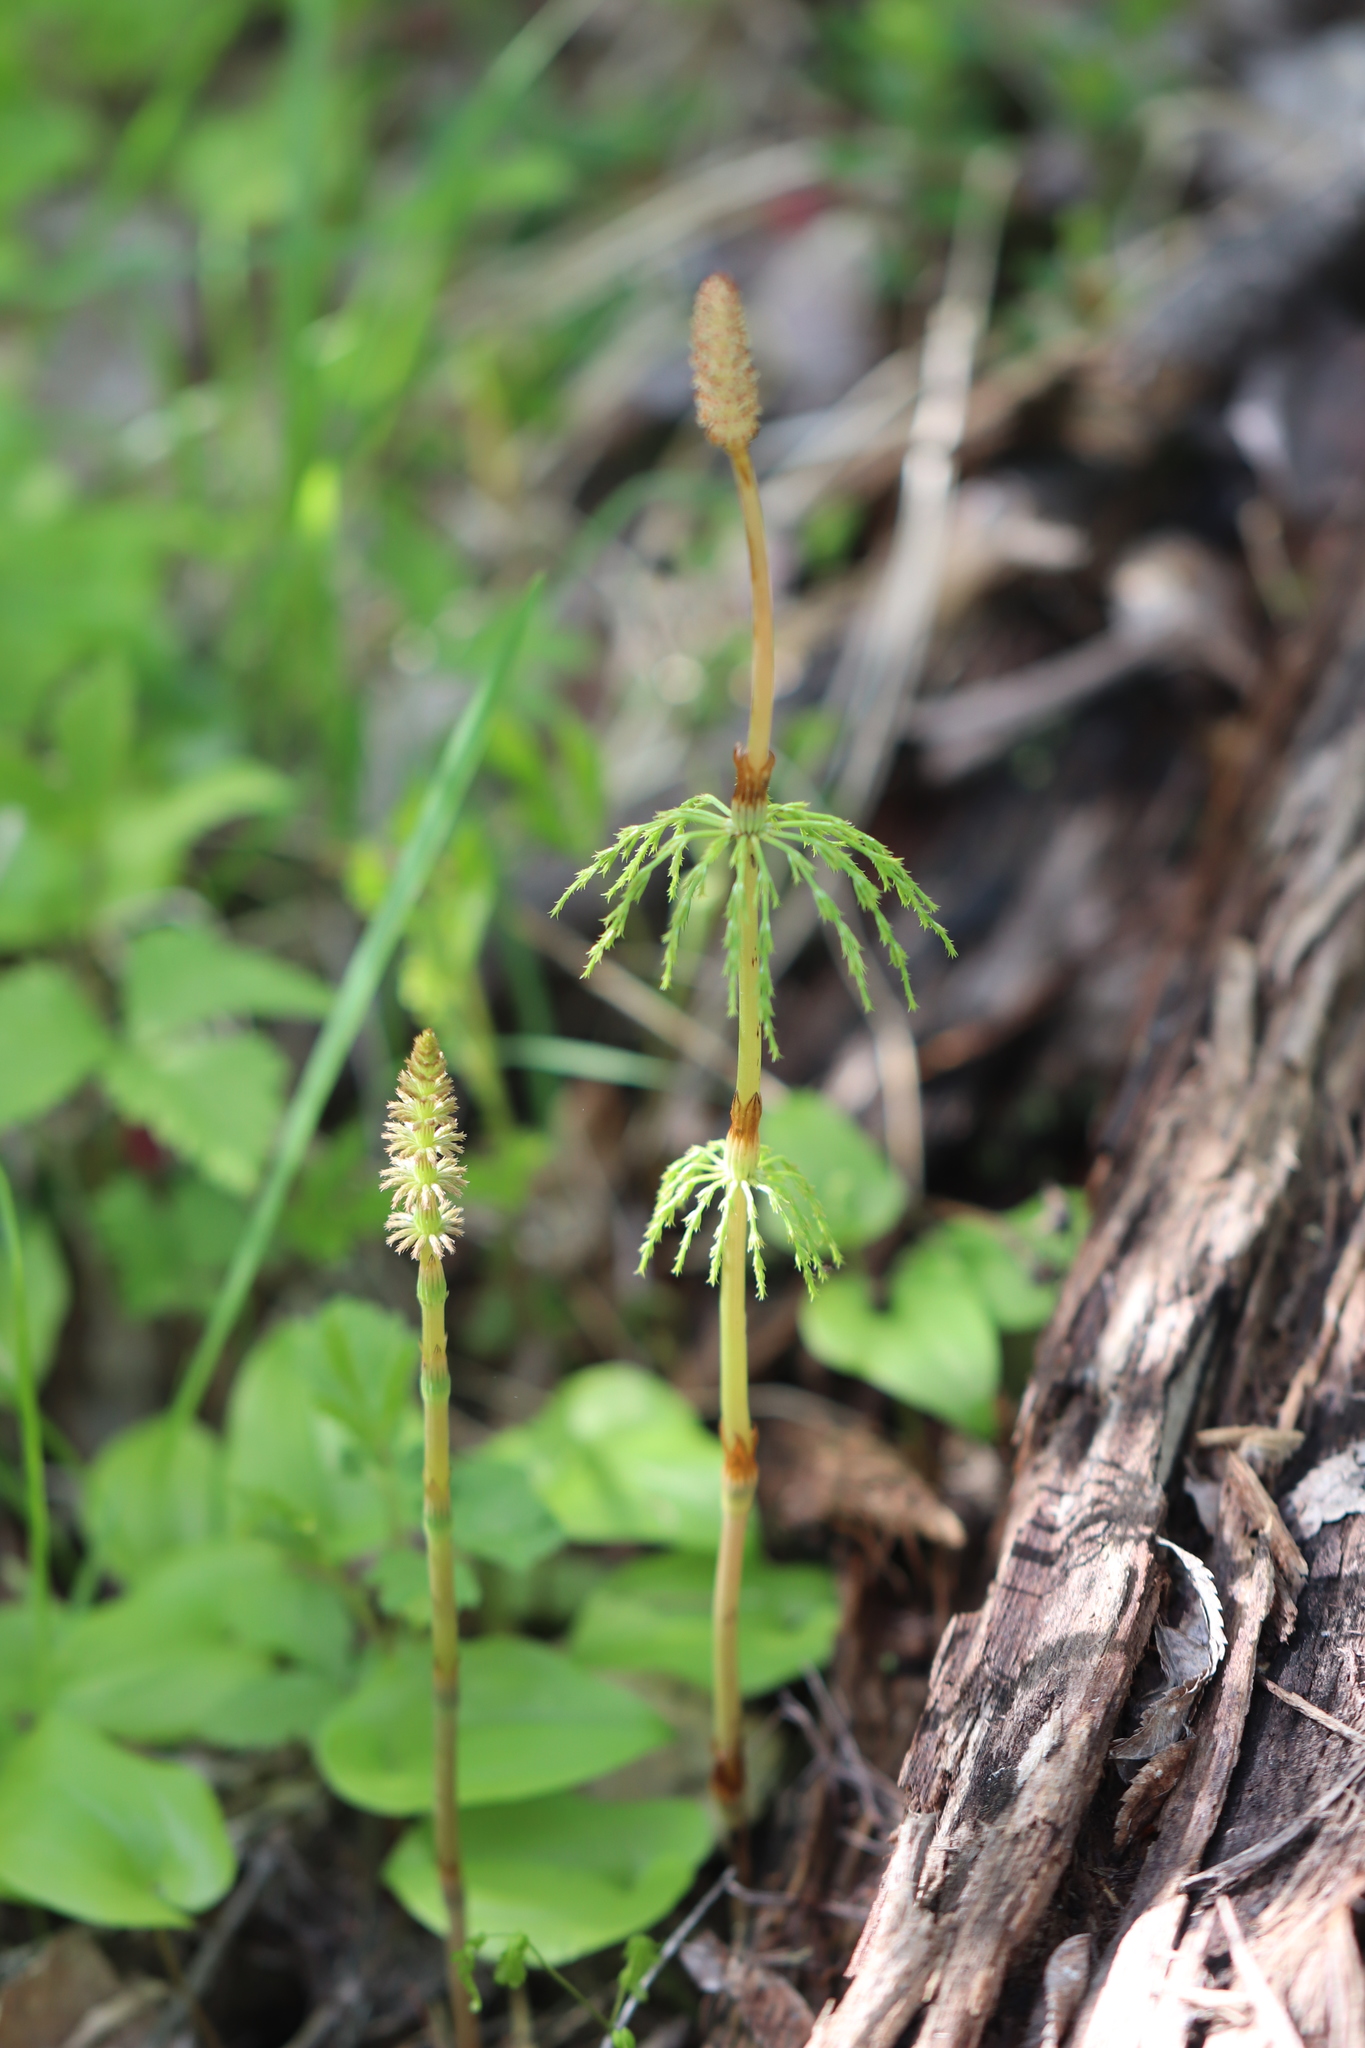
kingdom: Plantae
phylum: Tracheophyta
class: Polypodiopsida
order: Equisetales
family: Equisetaceae
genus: Equisetum
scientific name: Equisetum sylvaticum
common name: Wood horsetail
